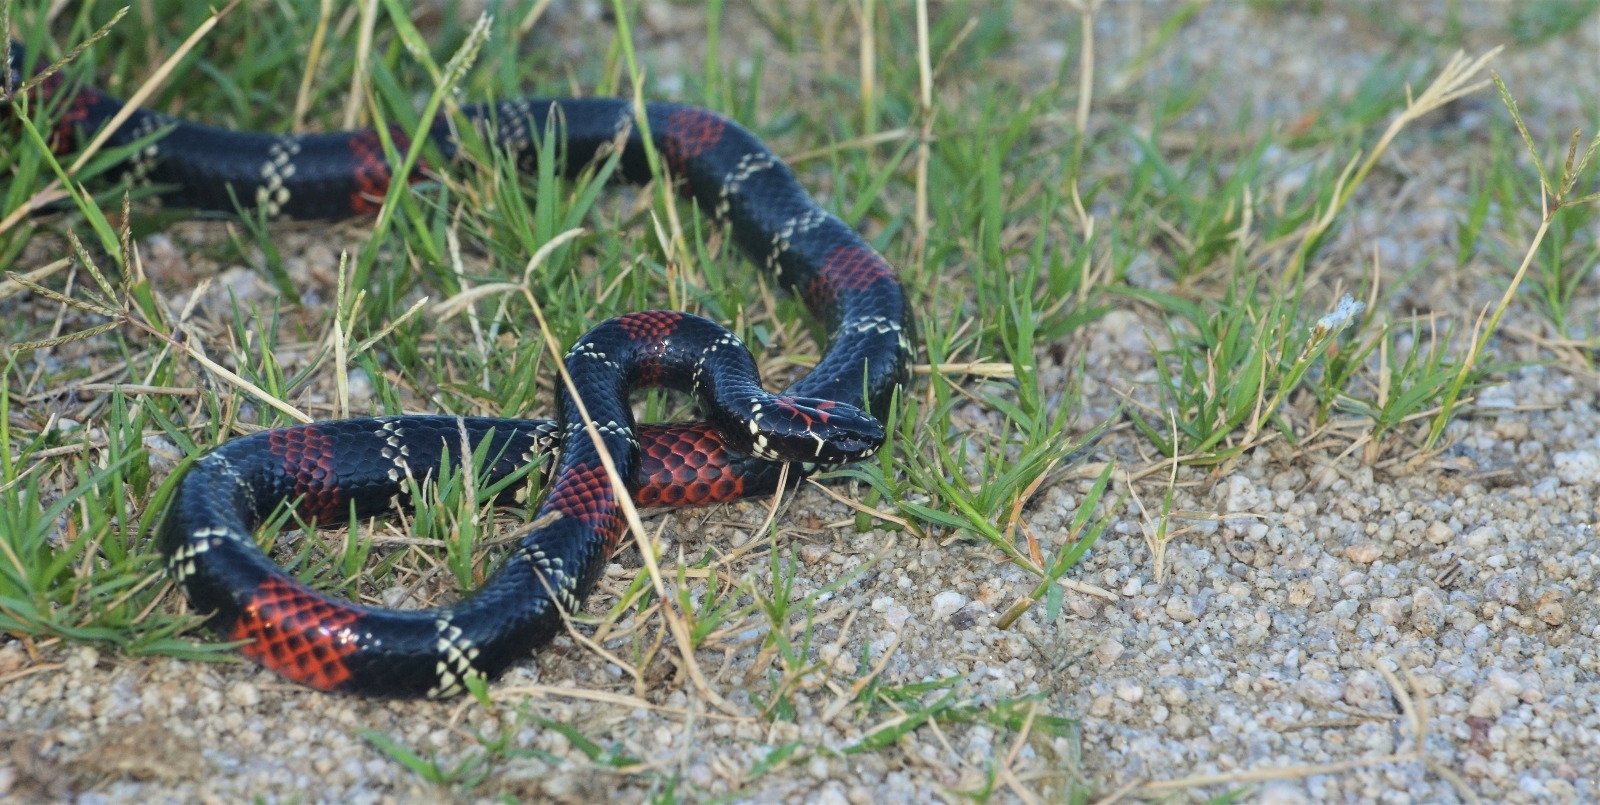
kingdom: Animalia
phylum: Chordata
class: Squamata
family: Elapidae
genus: Micrurus
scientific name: Micrurus altirostris
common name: Uruguayan coral snake
